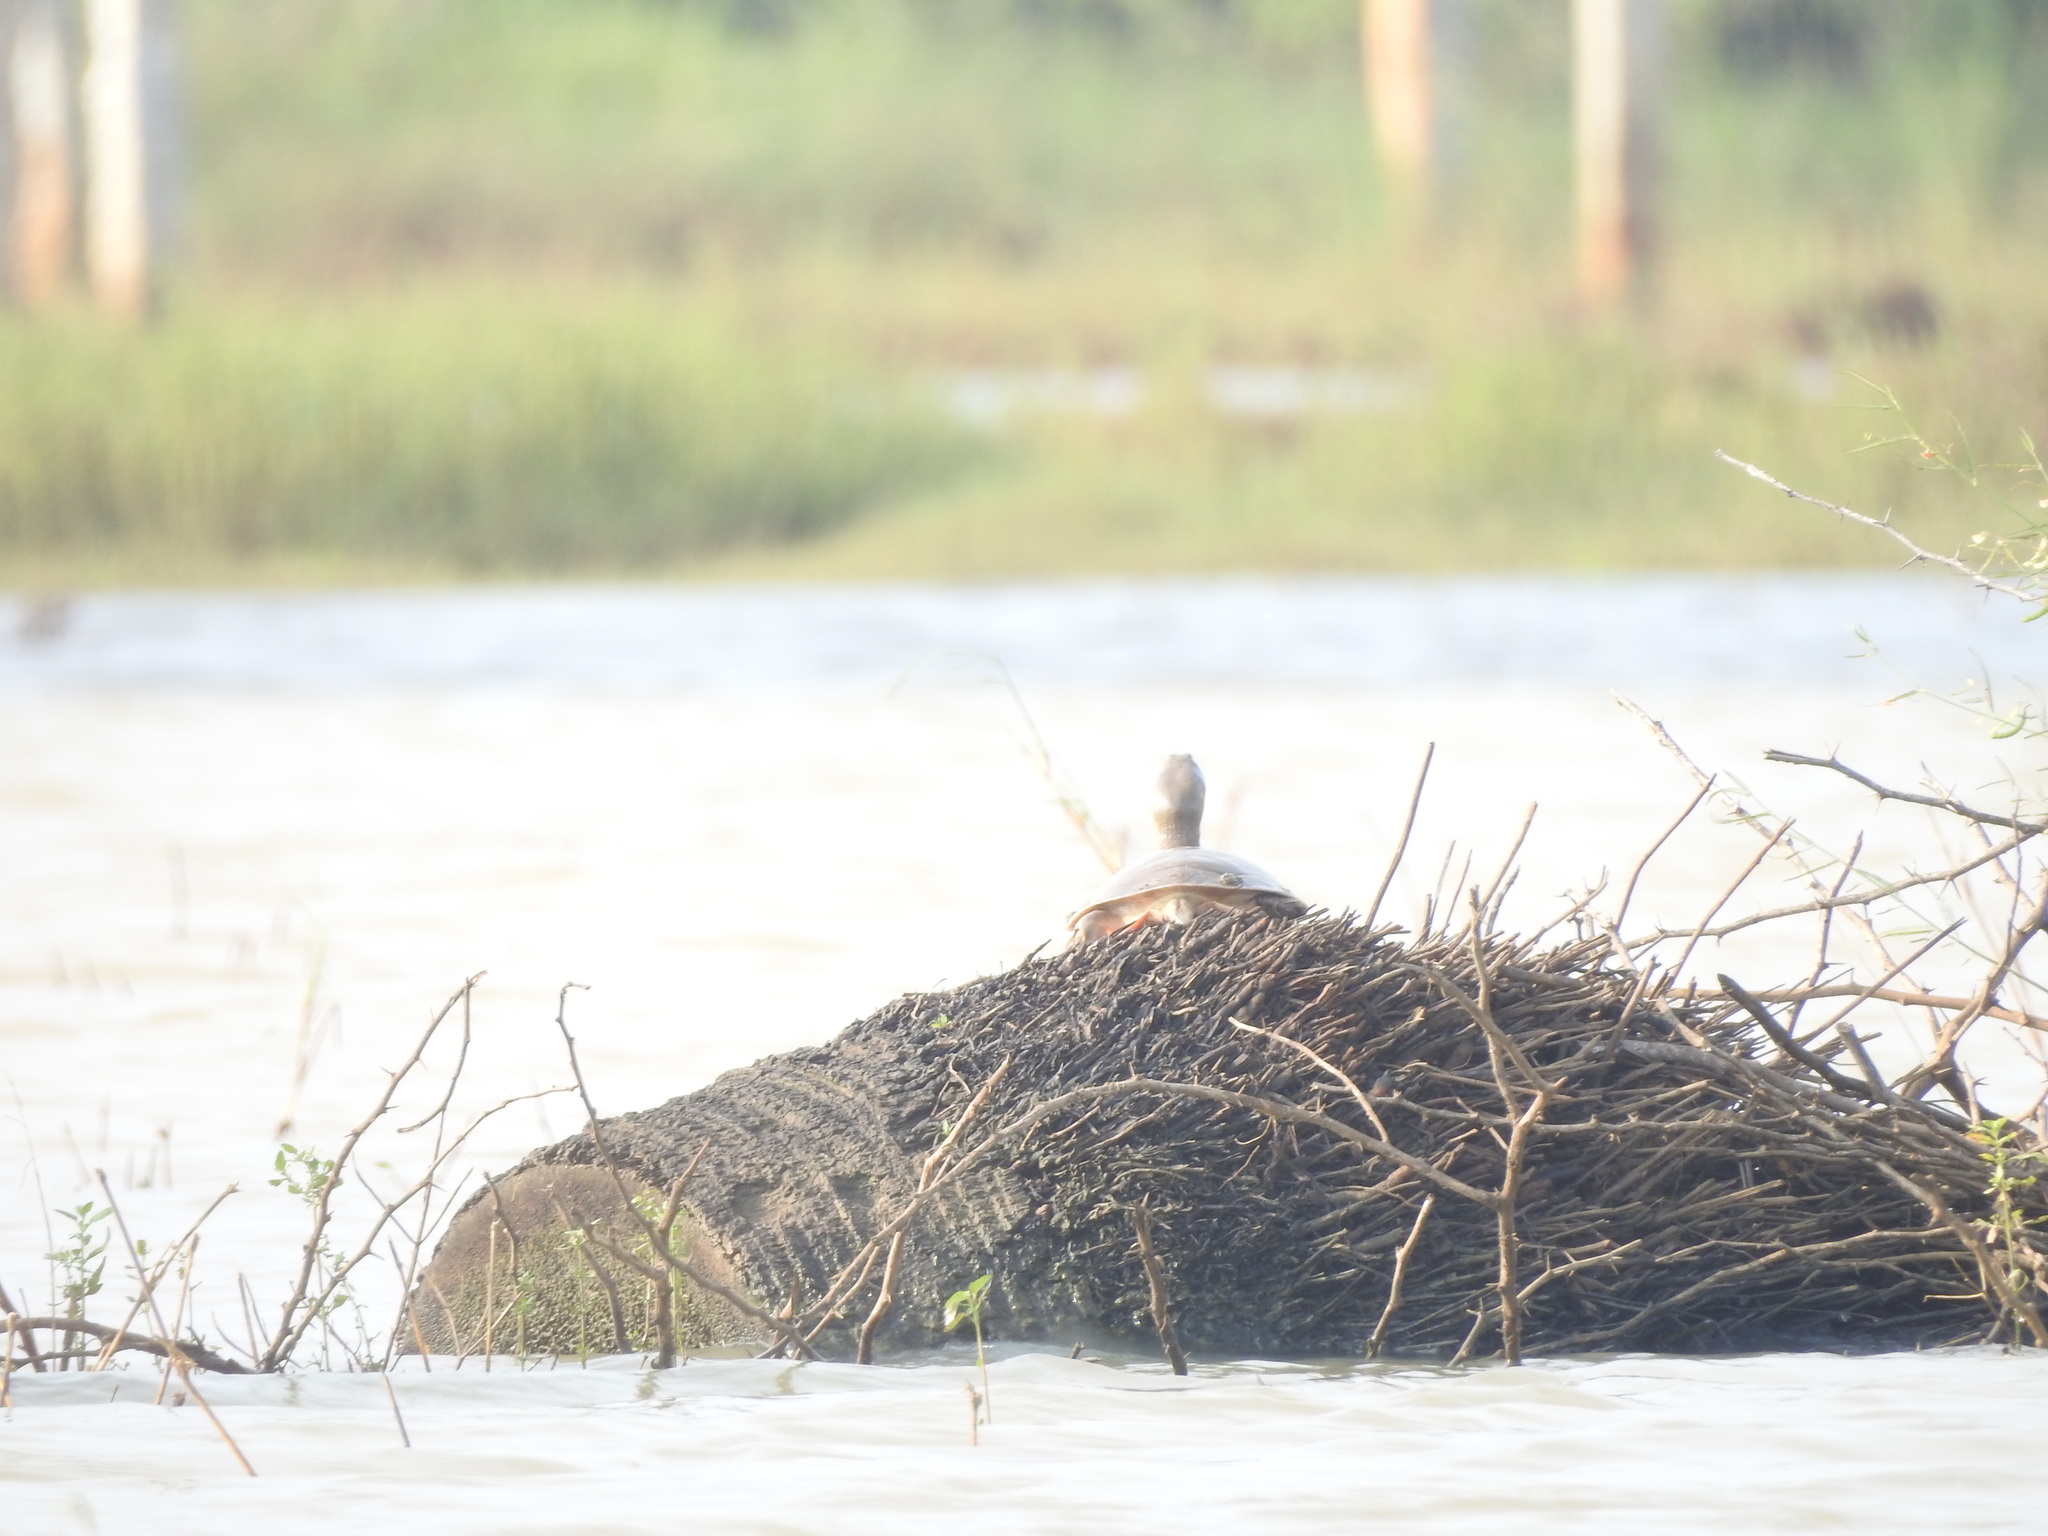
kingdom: Animalia
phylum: Chordata
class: Testudines
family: Trionychidae
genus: Lissemys
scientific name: Lissemys punctata
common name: Indian flap-shelled turtle
